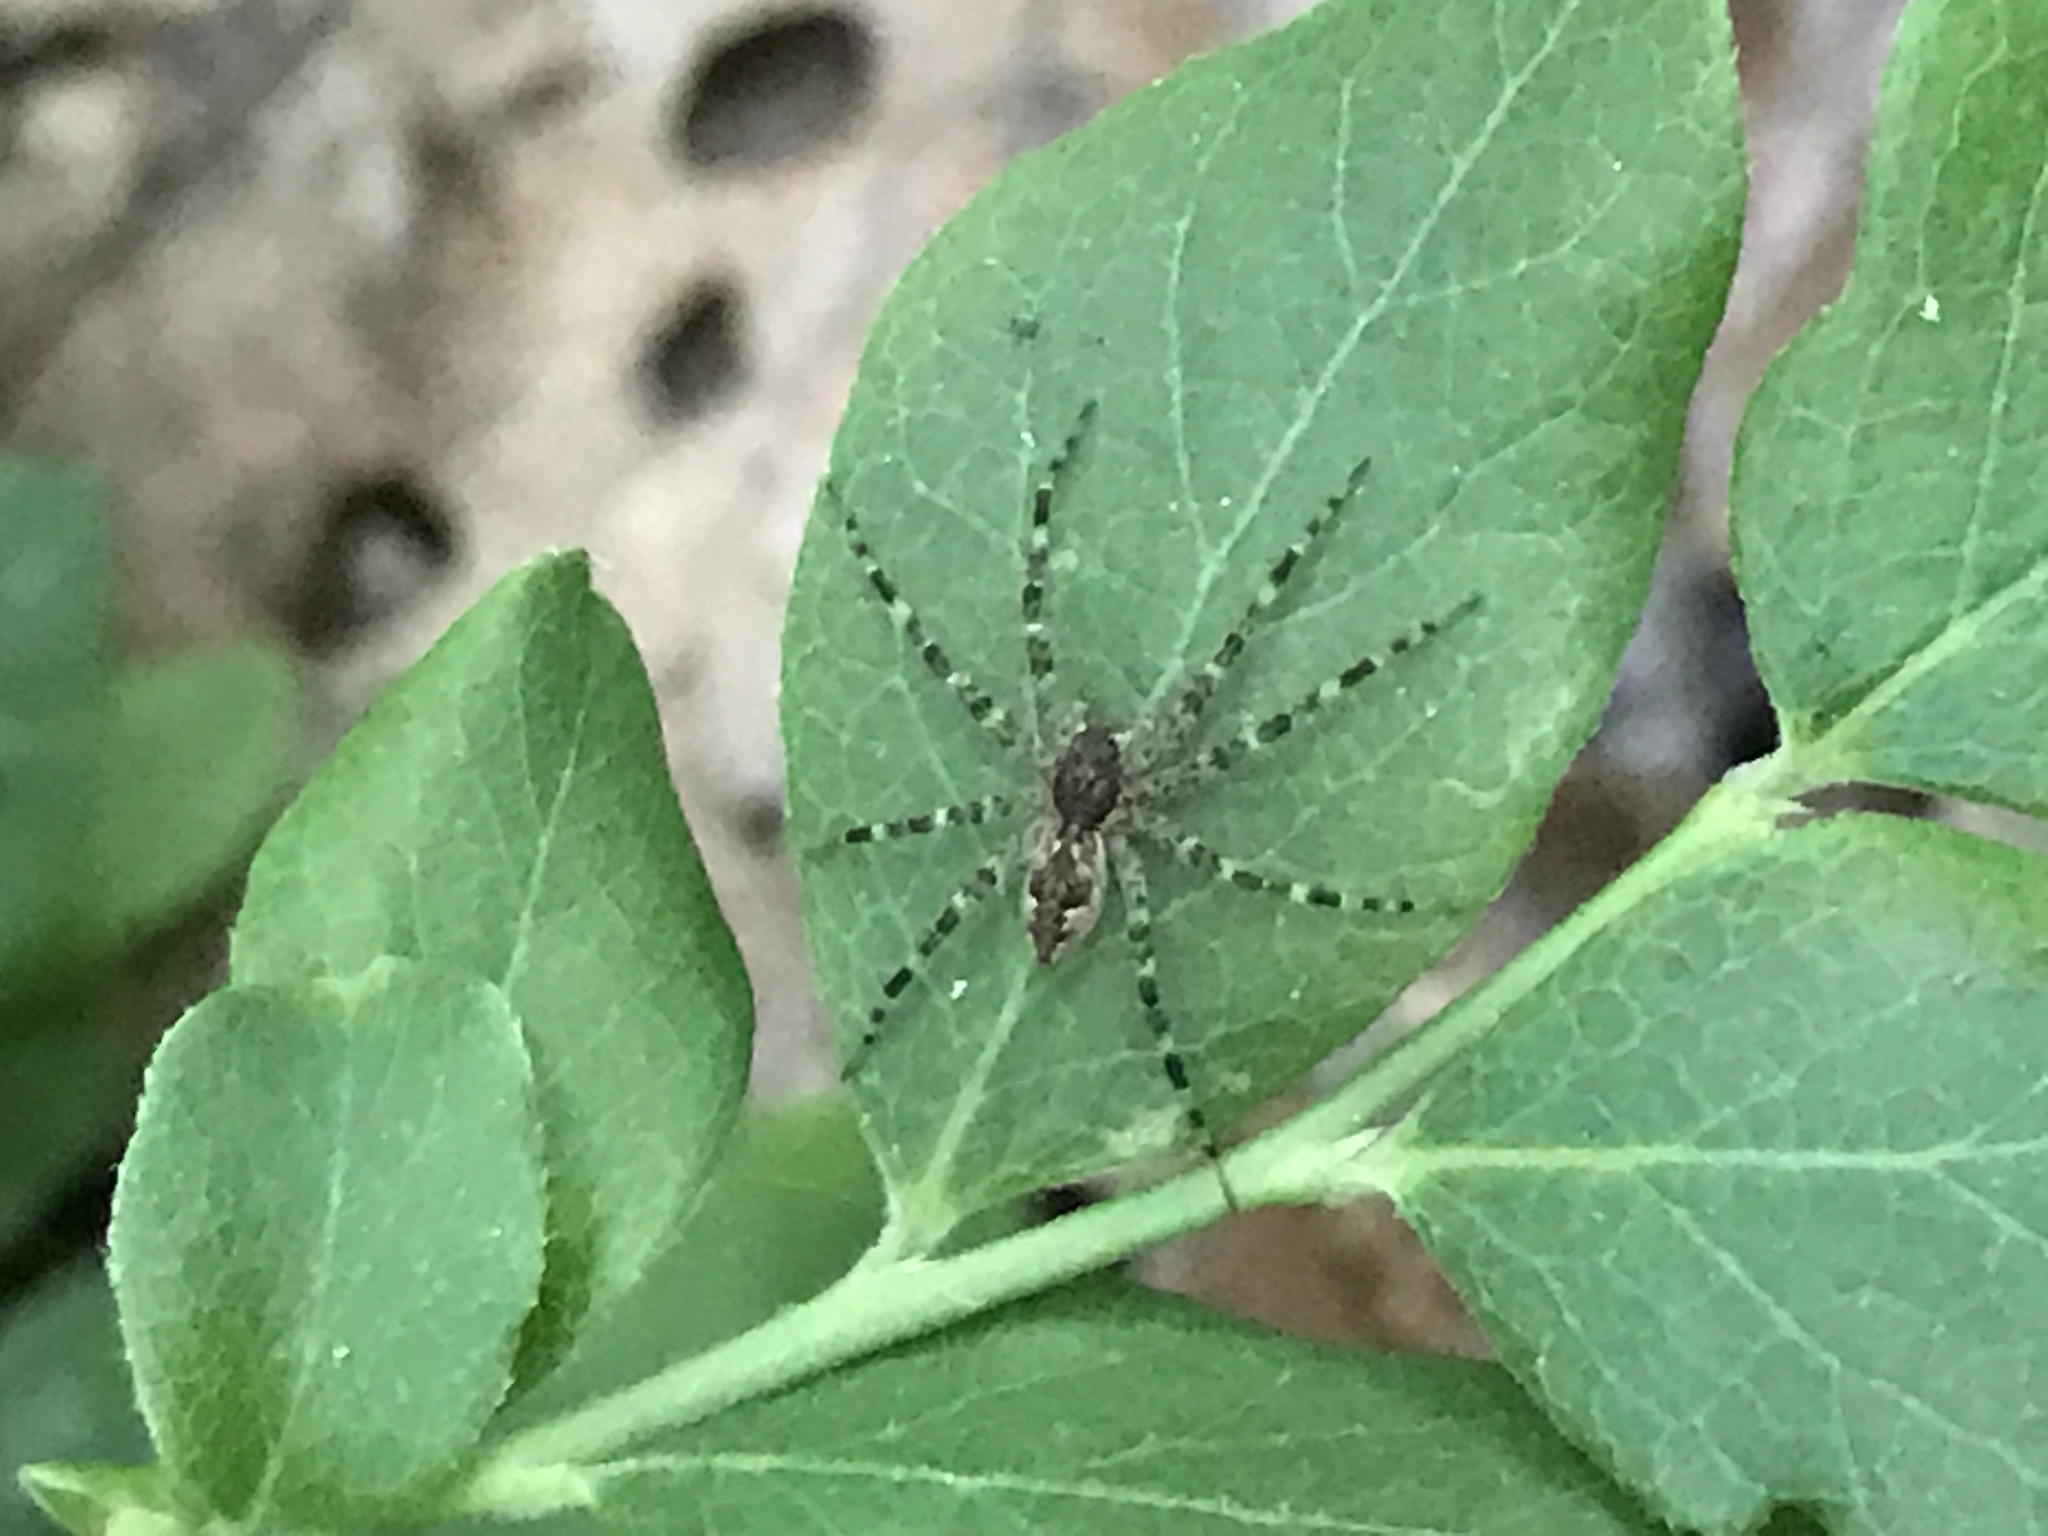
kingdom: Animalia
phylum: Arthropoda
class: Arachnida
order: Araneae
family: Pisauridae
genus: Dolomedes
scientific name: Dolomedes tenebrosus
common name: Dark fishing spider
